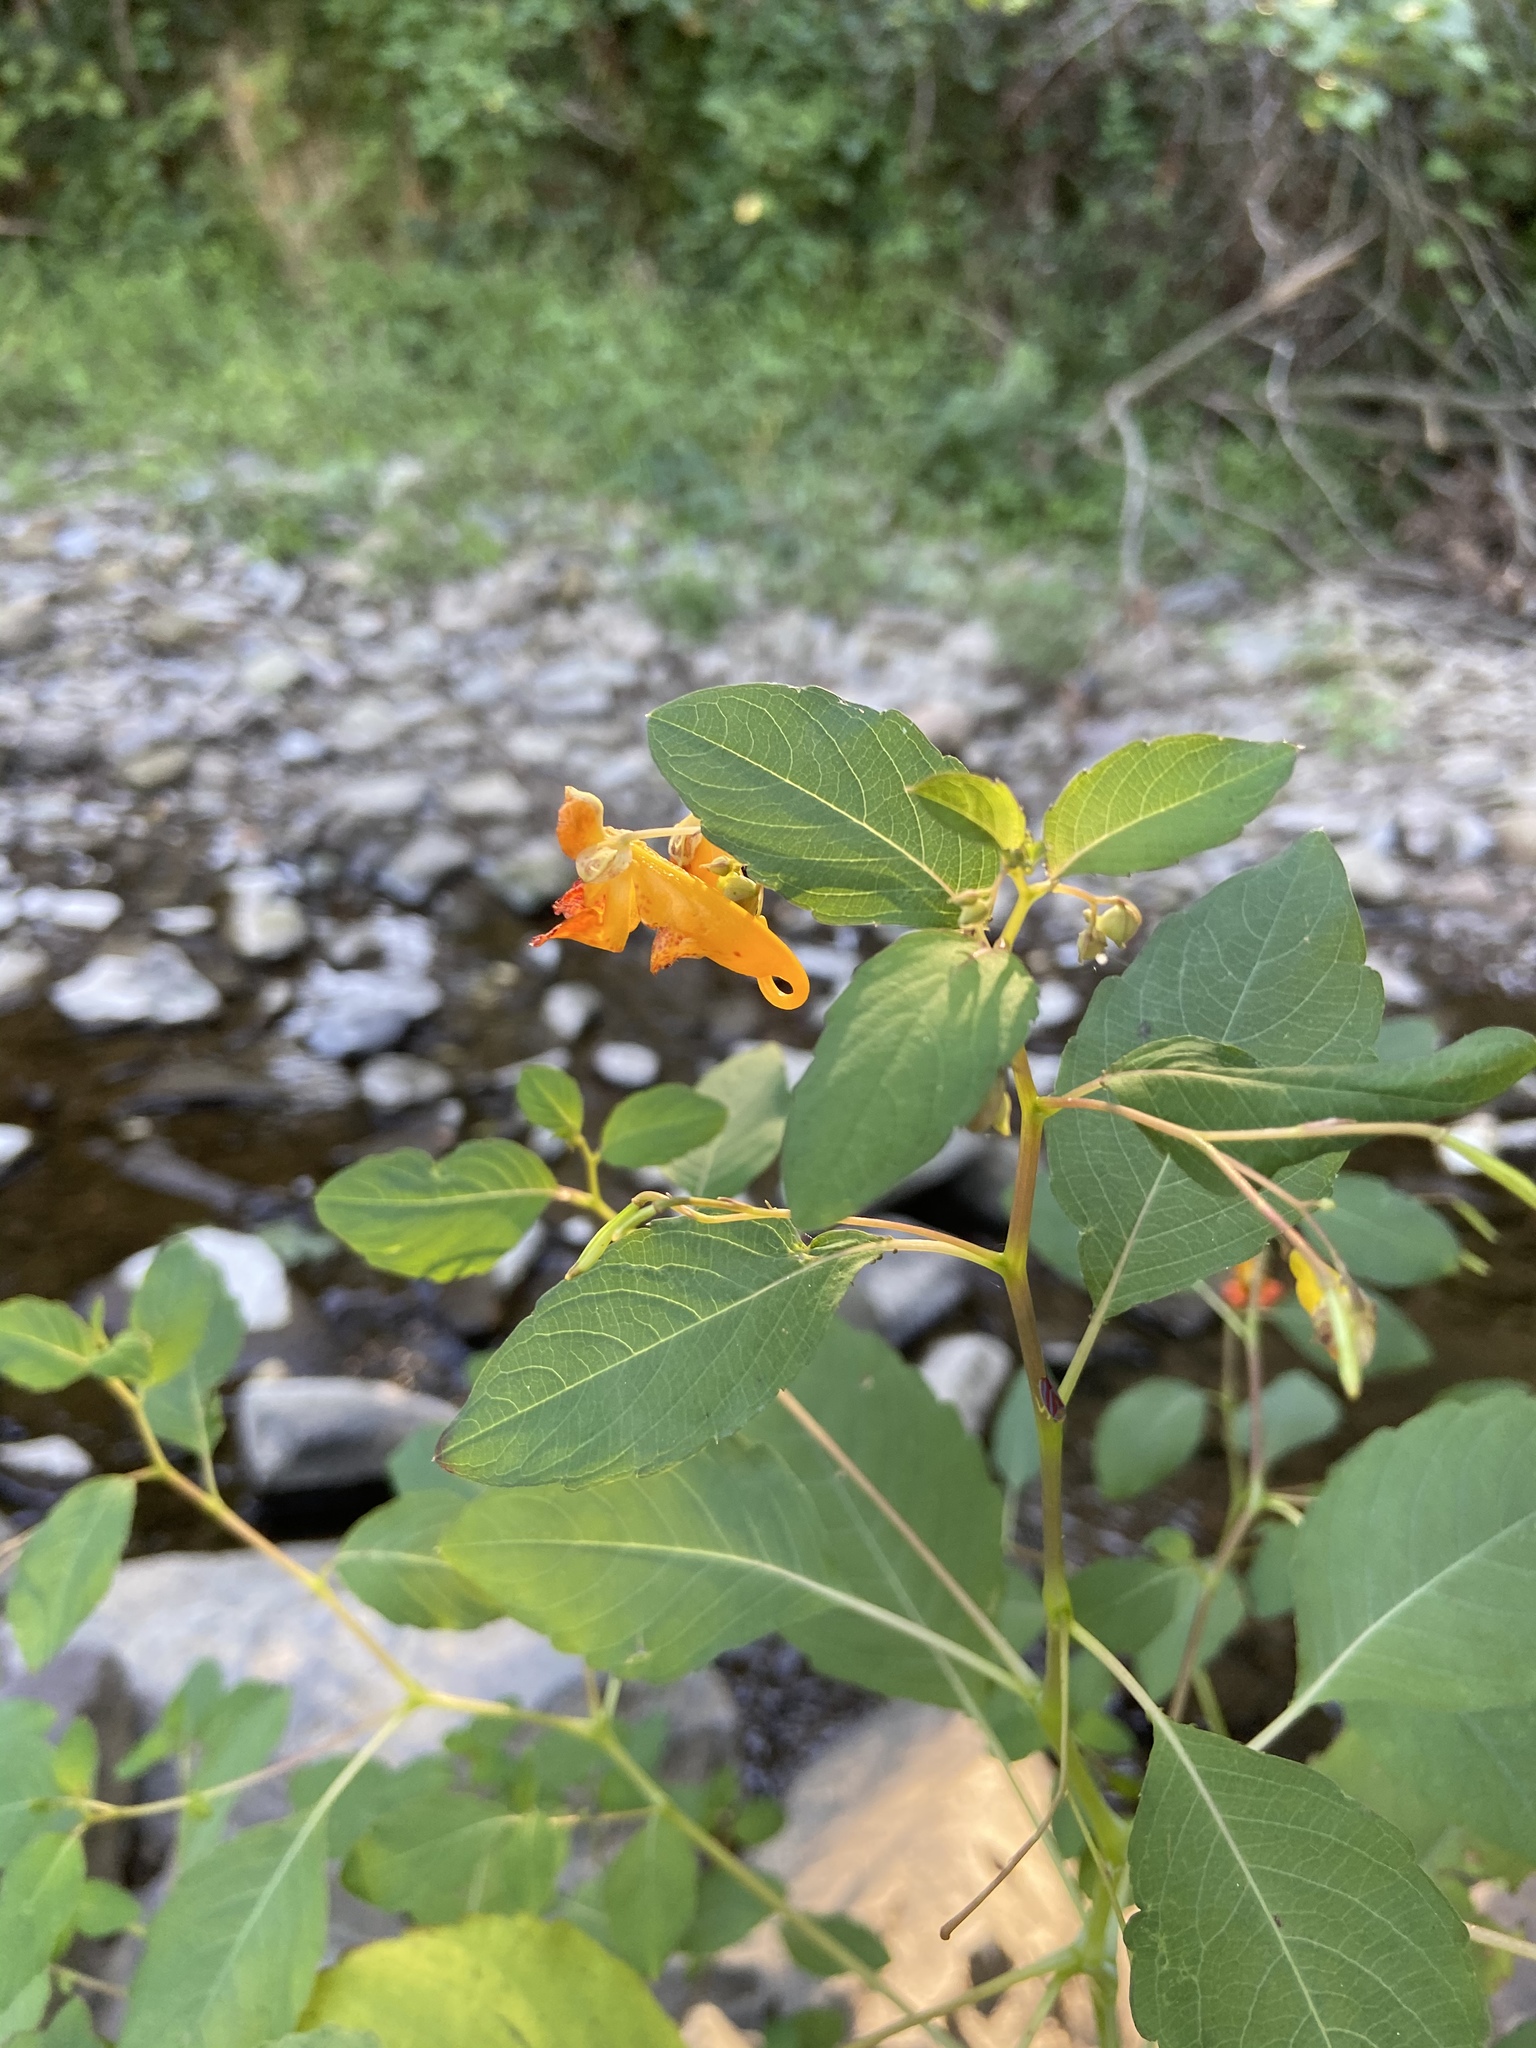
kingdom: Plantae
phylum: Tracheophyta
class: Magnoliopsida
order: Ericales
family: Balsaminaceae
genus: Impatiens
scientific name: Impatiens capensis
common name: Orange balsam
